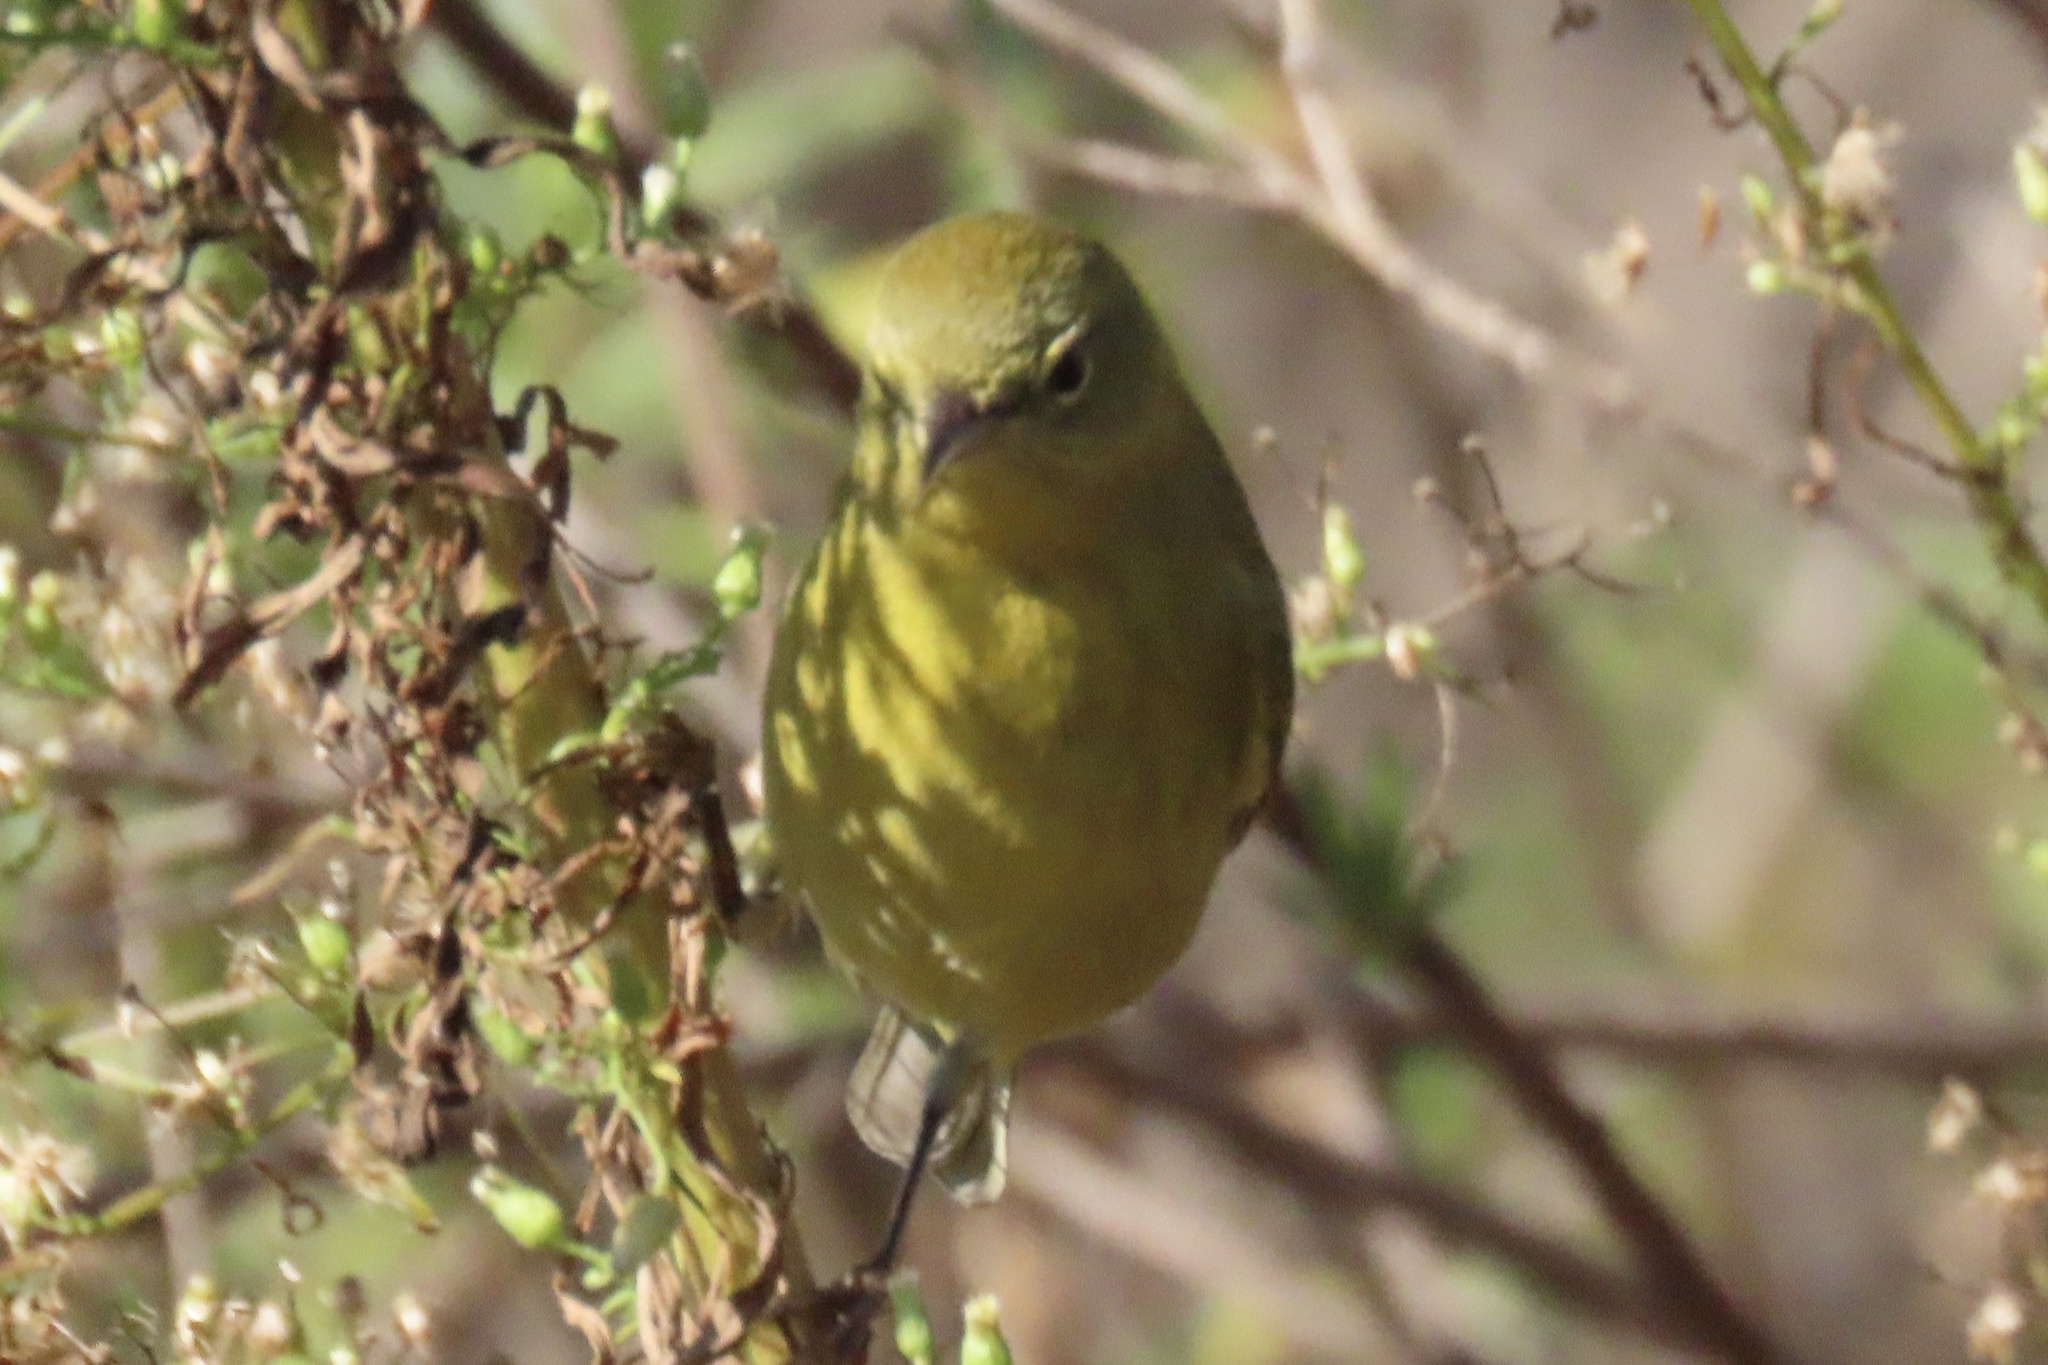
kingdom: Animalia
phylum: Chordata
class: Aves
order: Passeriformes
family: Parulidae
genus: Leiothlypis
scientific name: Leiothlypis celata
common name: Orange-crowned warbler
